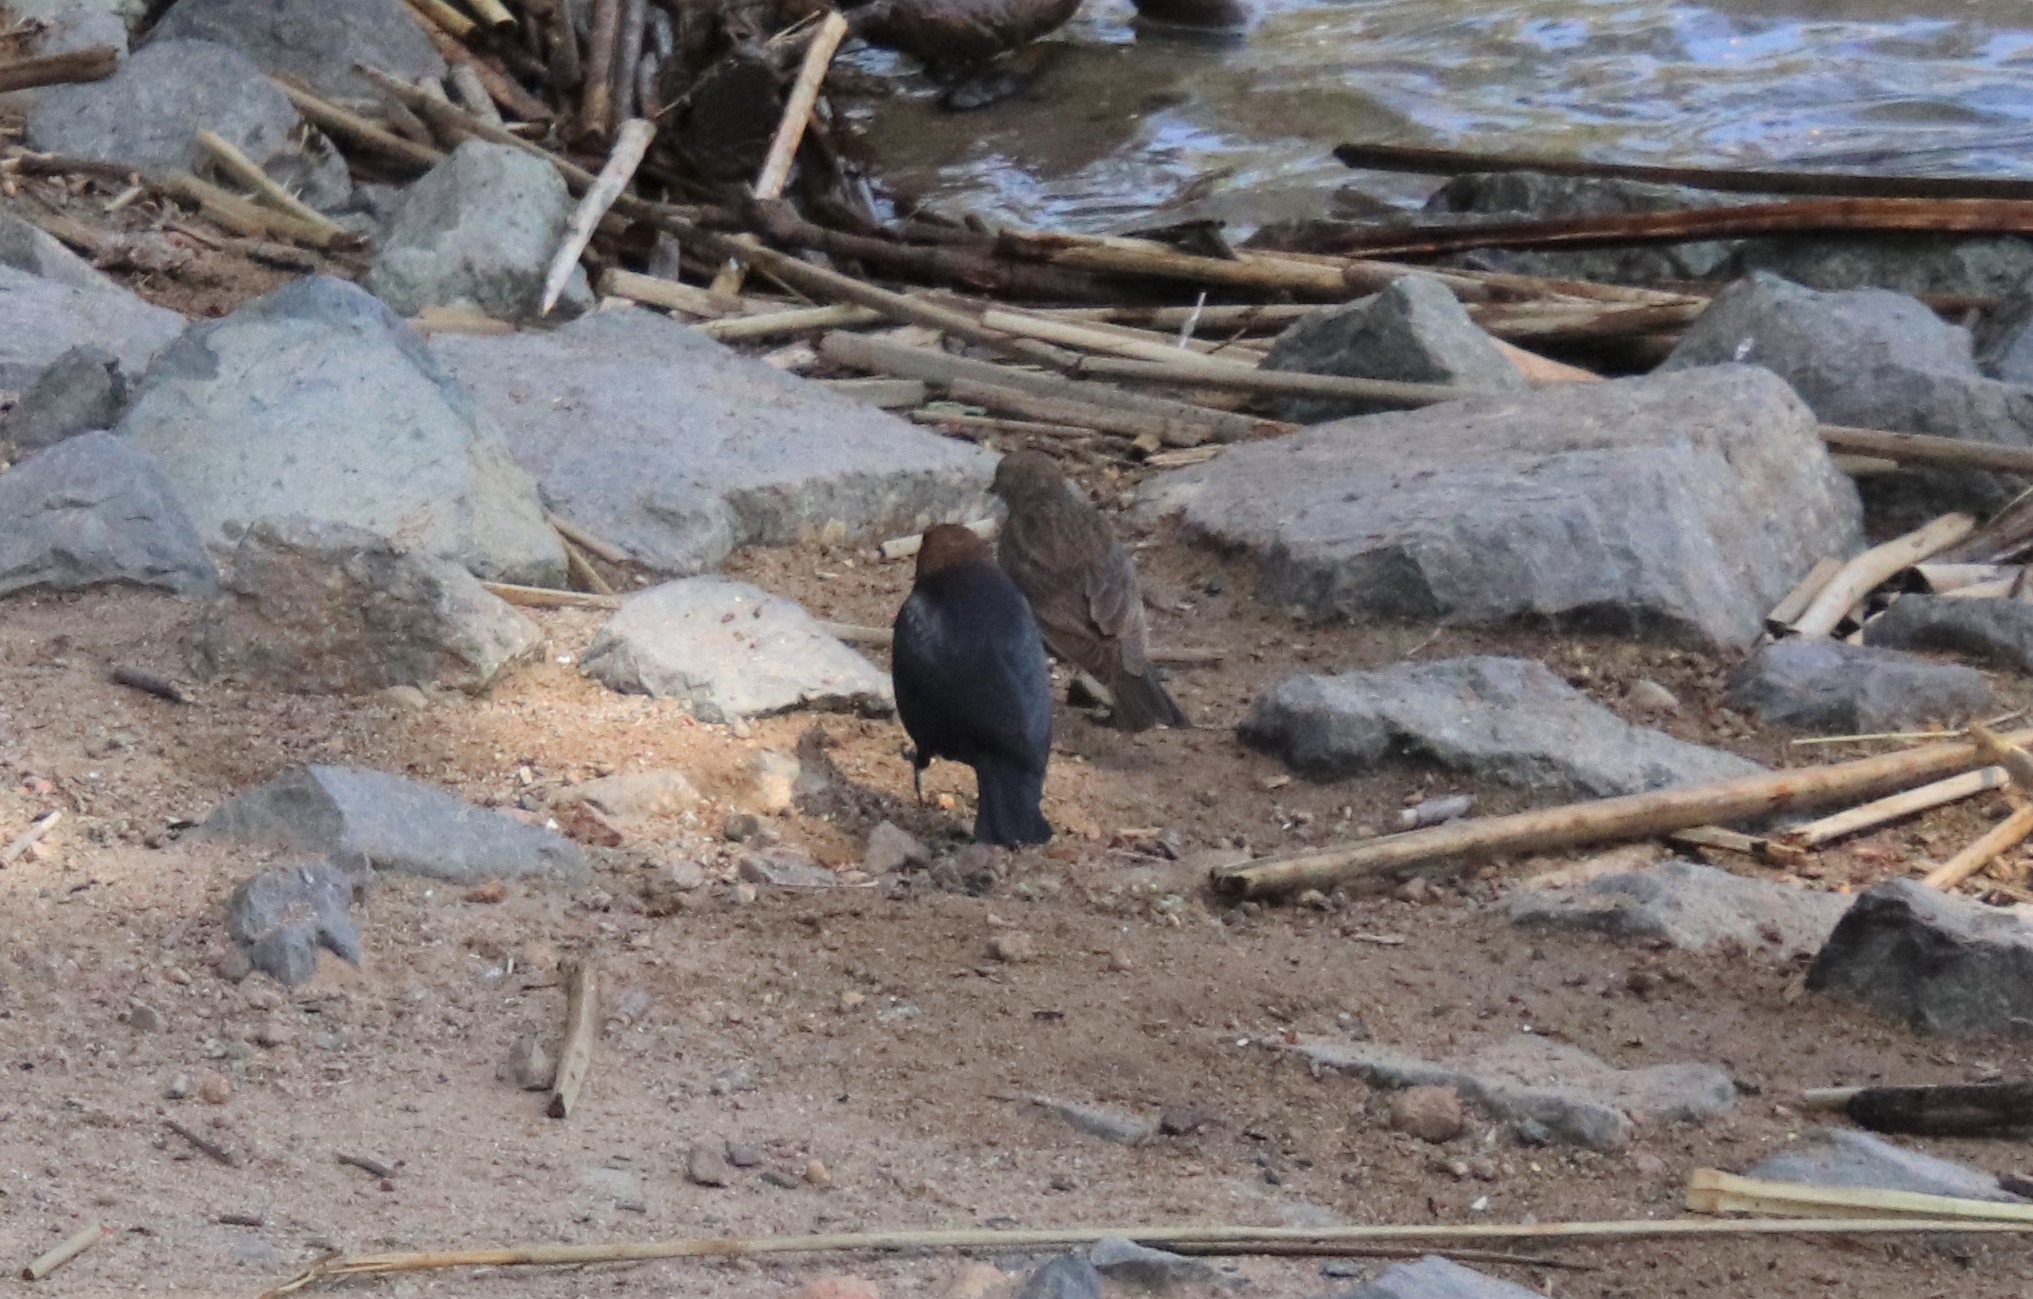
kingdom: Animalia
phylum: Chordata
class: Aves
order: Passeriformes
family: Icteridae
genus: Molothrus
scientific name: Molothrus ater
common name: Brown-headed cowbird
